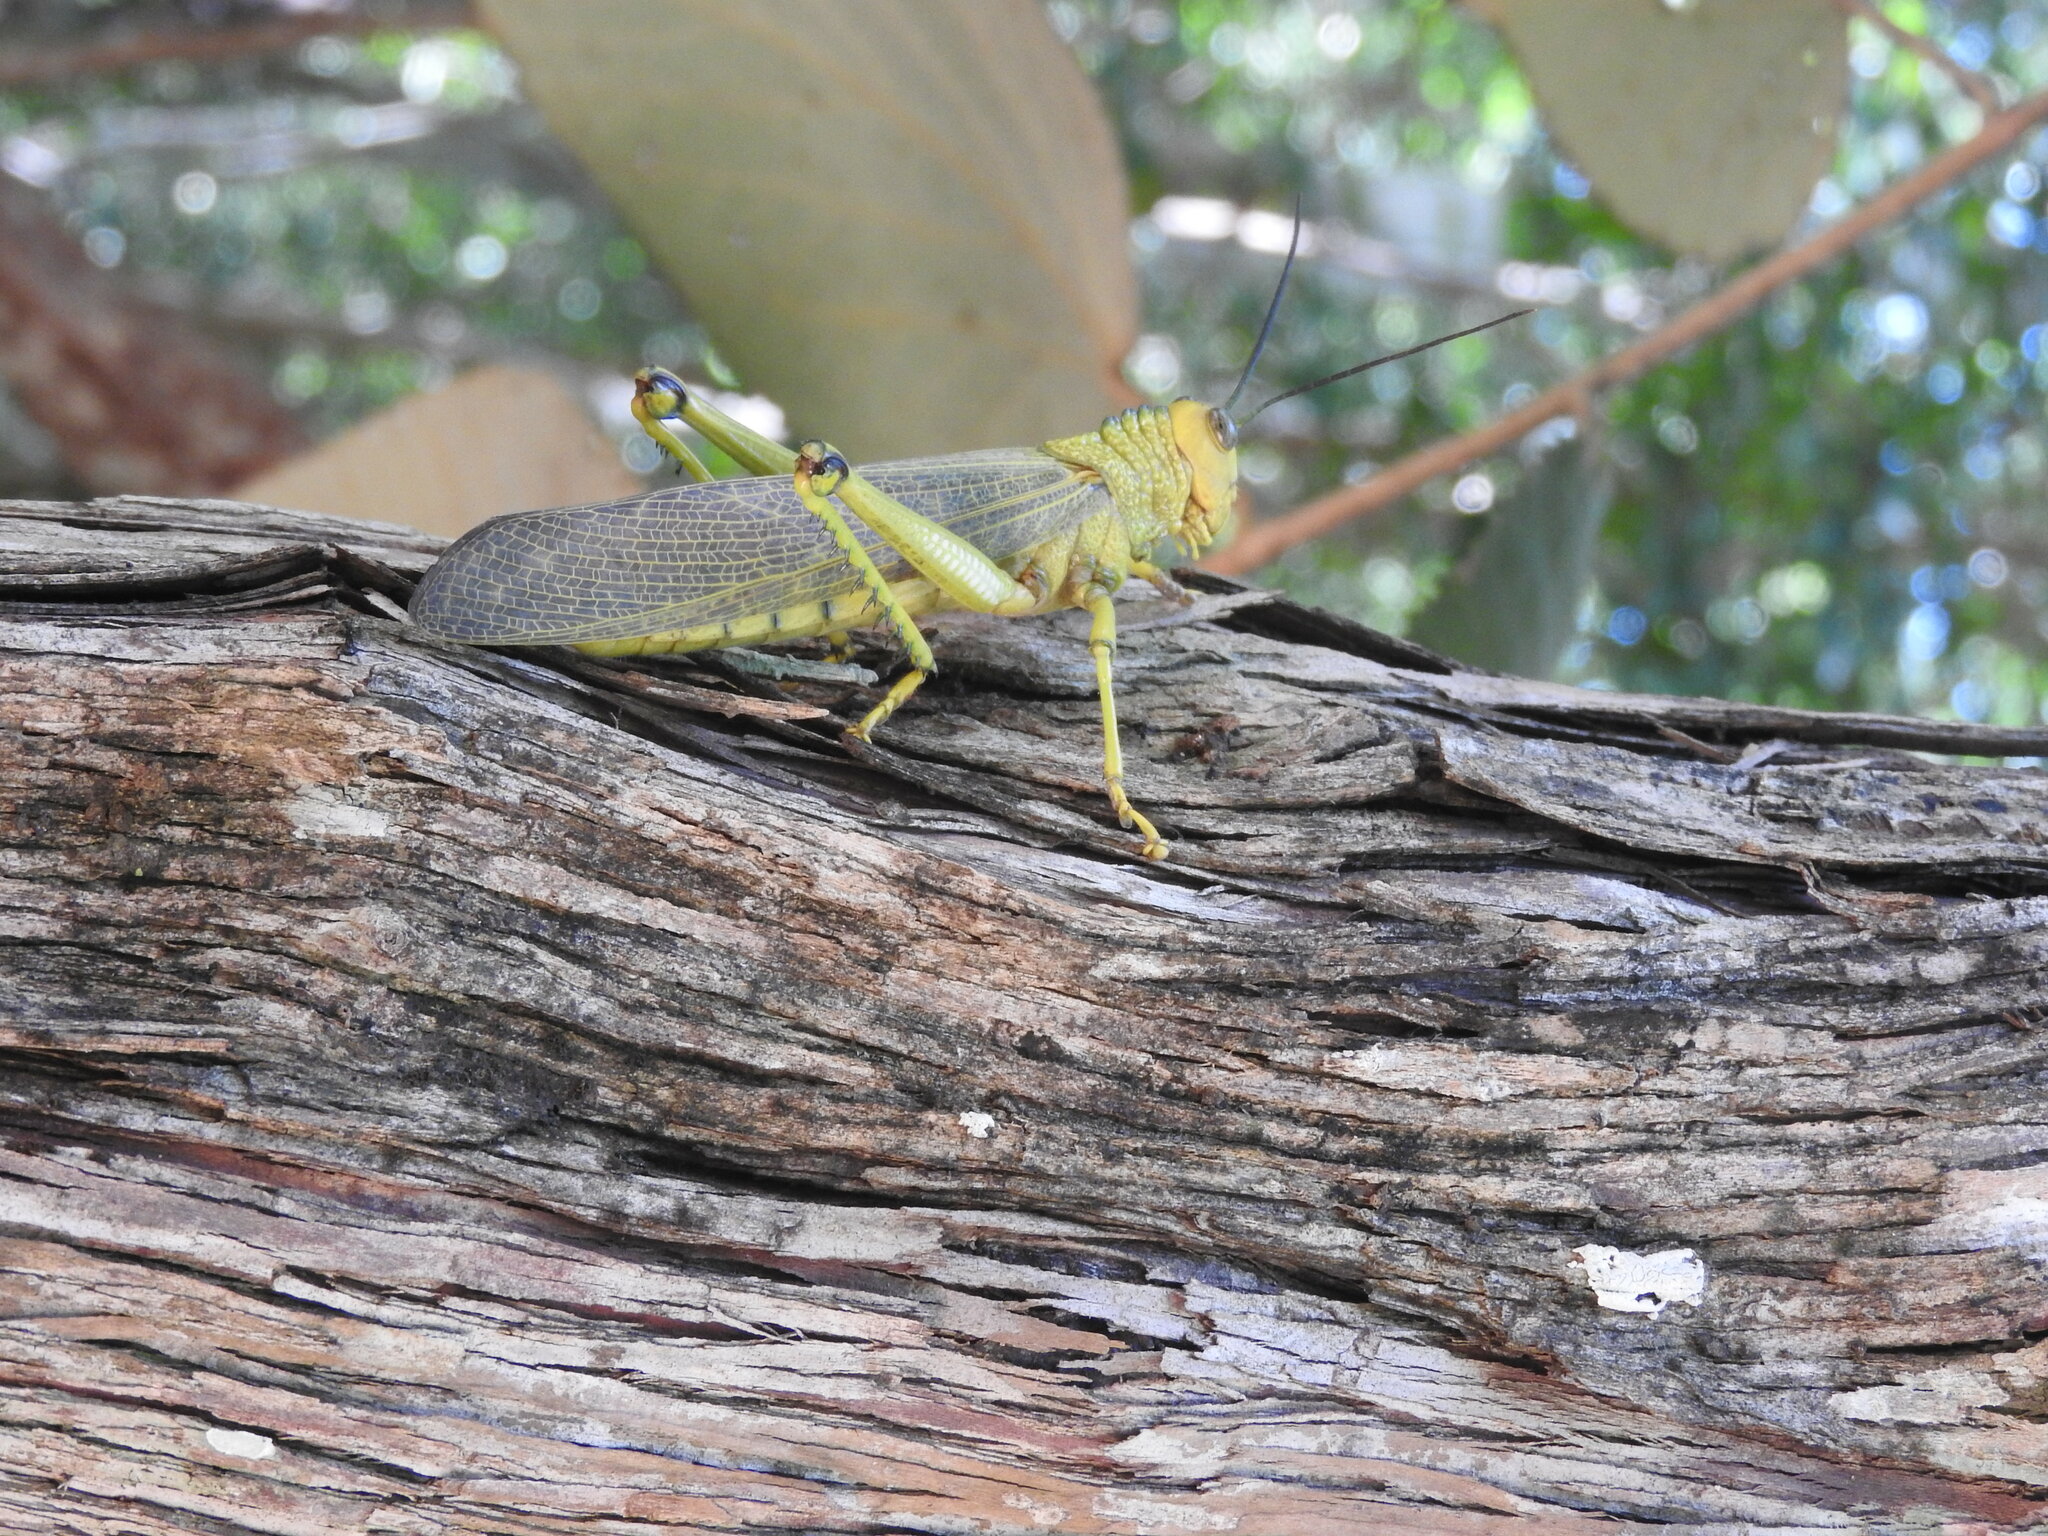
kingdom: Animalia
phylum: Arthropoda
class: Insecta
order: Orthoptera
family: Romaleidae
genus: Tropidacris
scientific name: Tropidacris cristata
